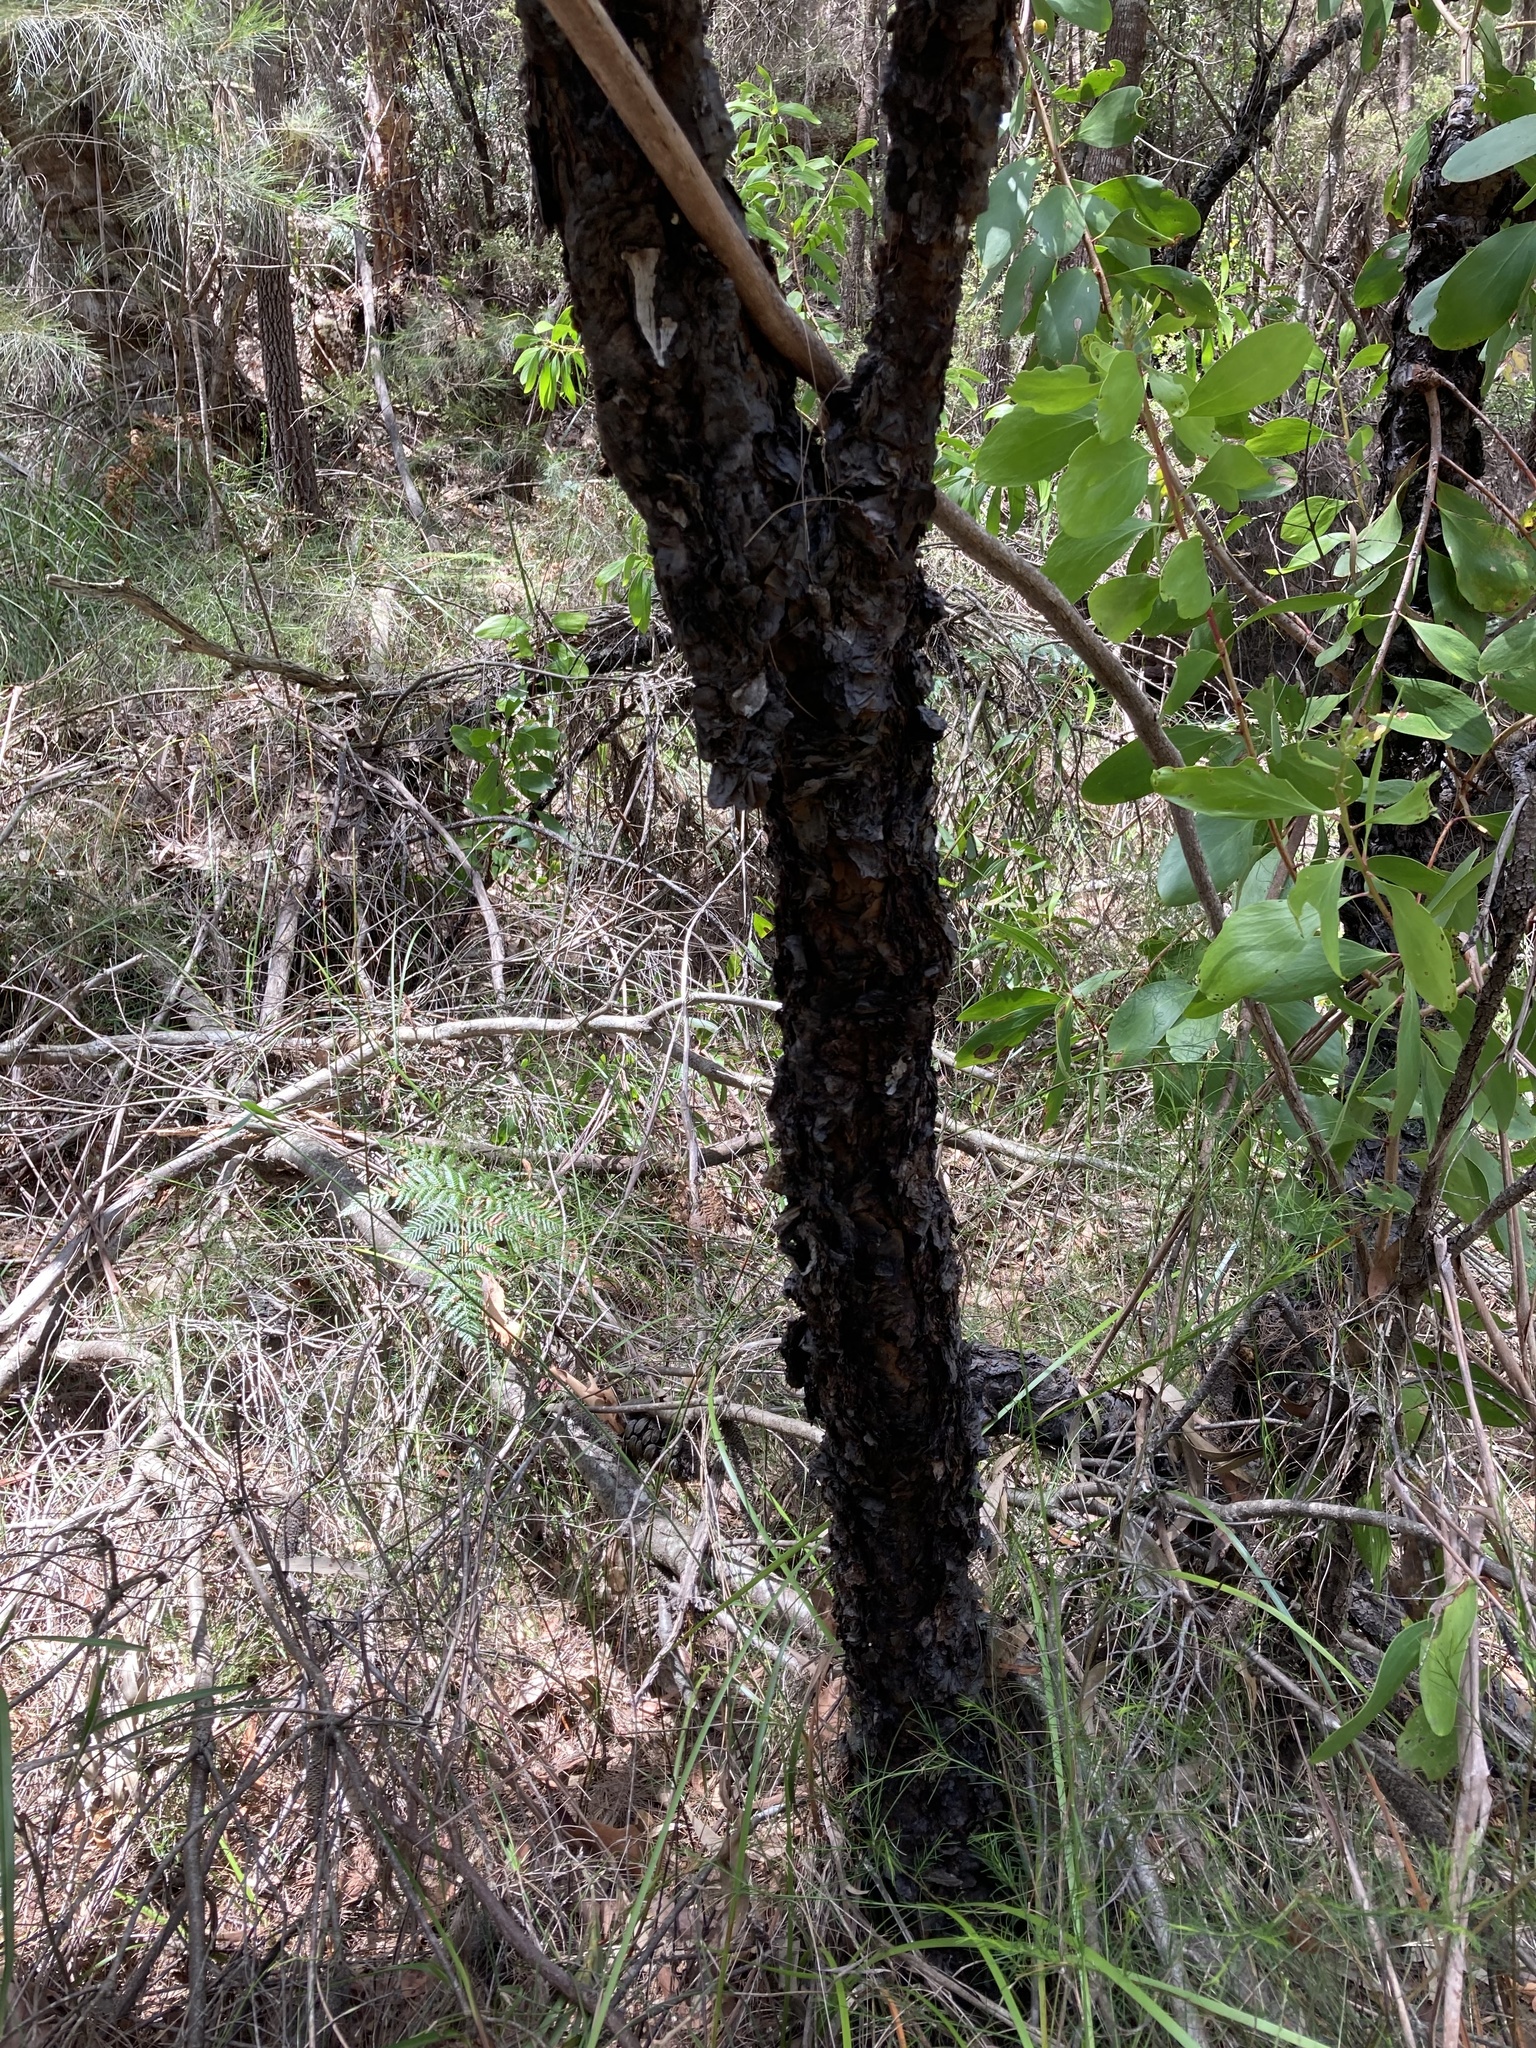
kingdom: Plantae
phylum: Tracheophyta
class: Magnoliopsida
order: Proteales
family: Proteaceae
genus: Persoonia
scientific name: Persoonia levis
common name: Smooth geebung
